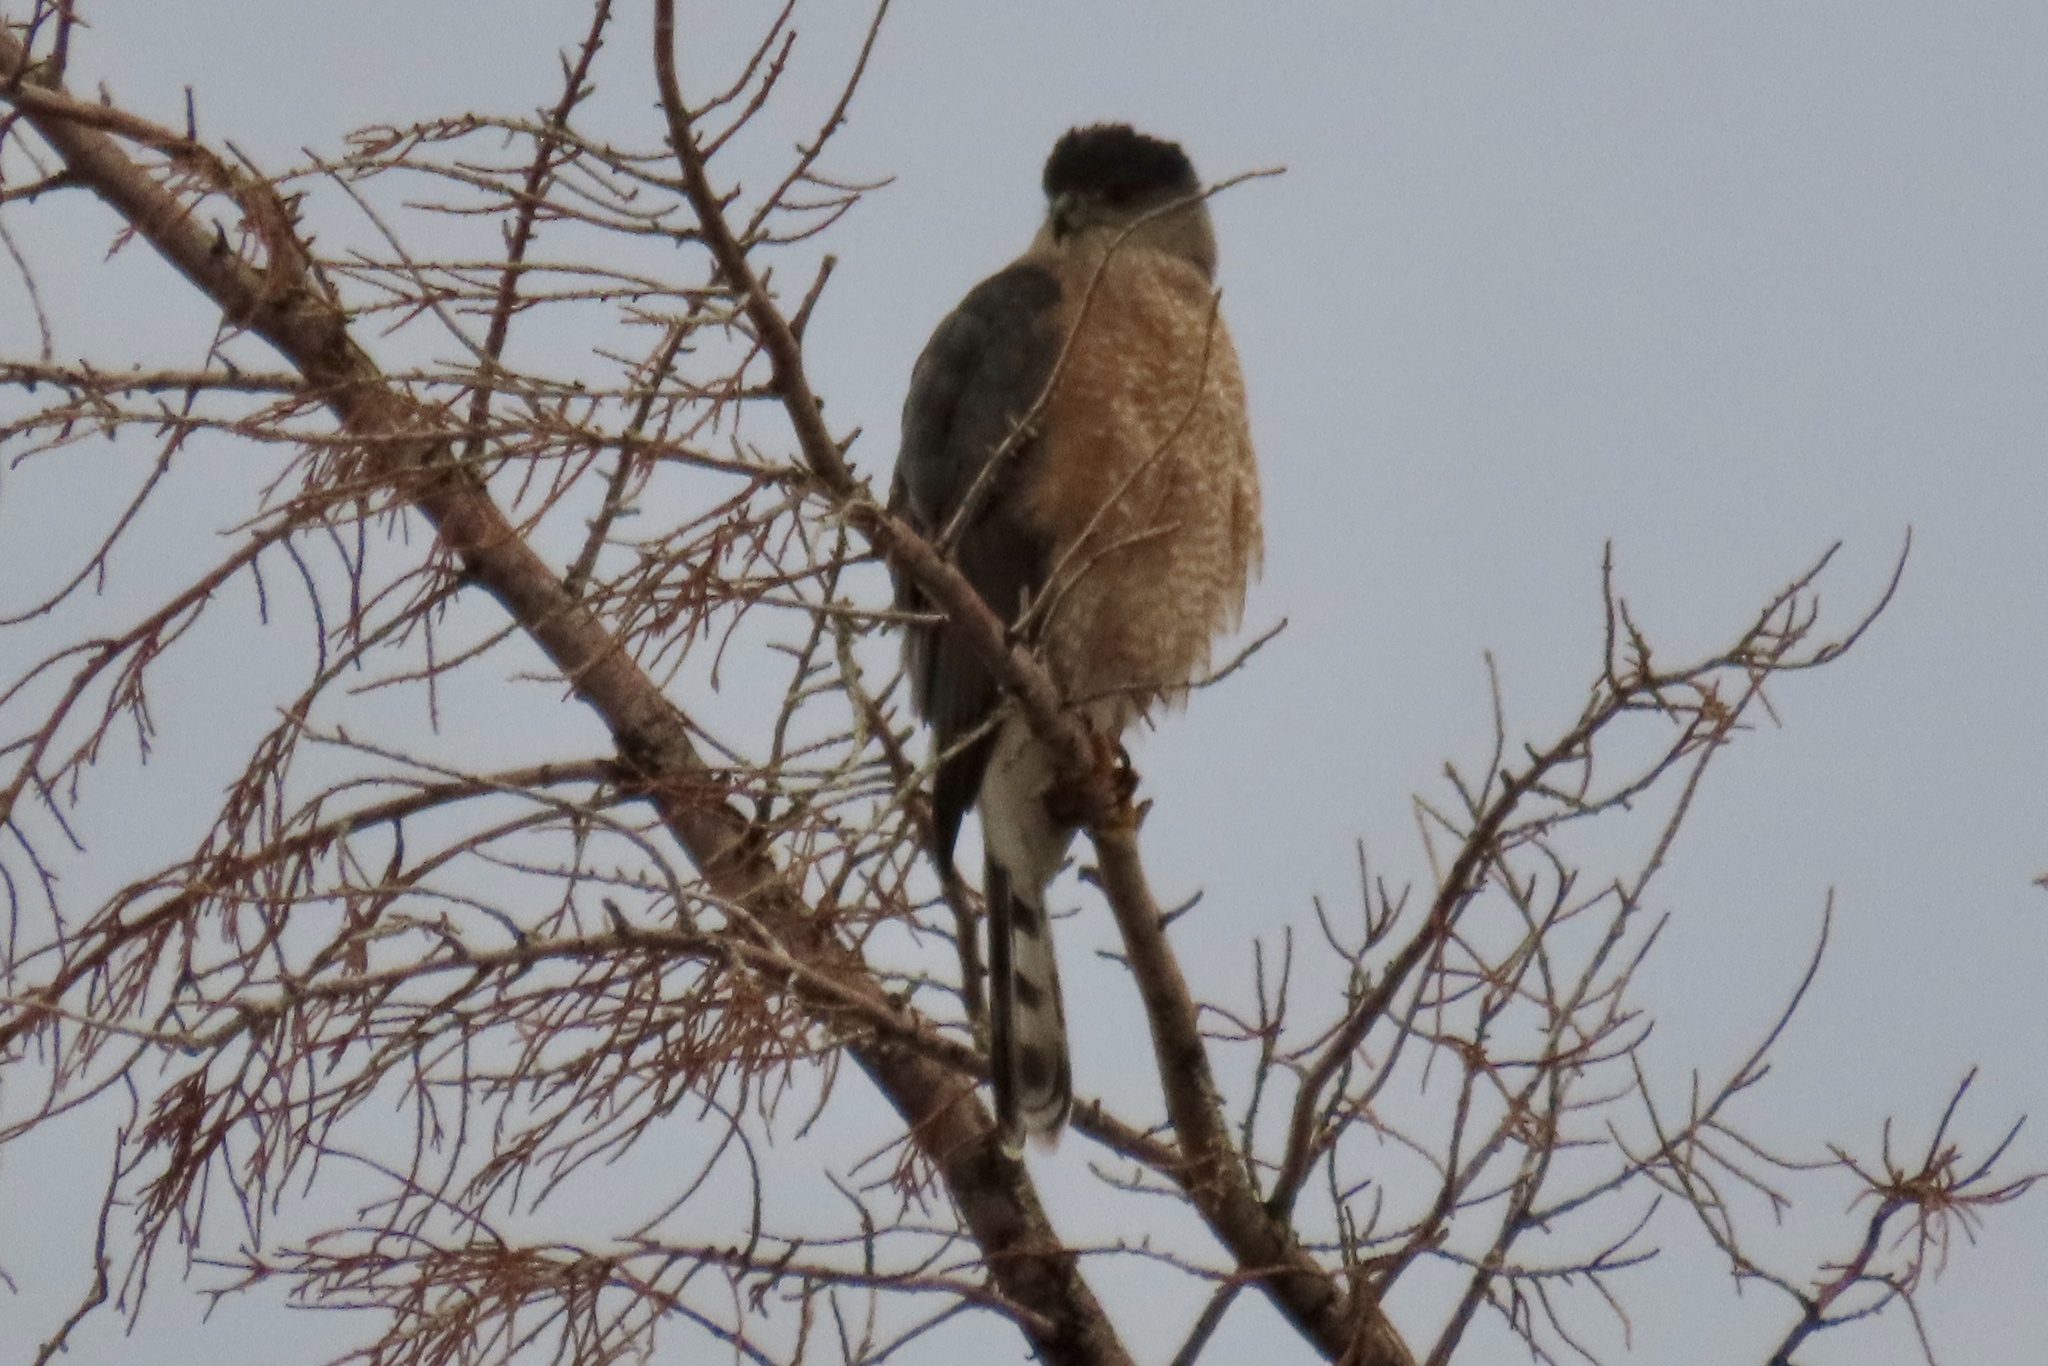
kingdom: Animalia
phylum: Chordata
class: Aves
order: Accipitriformes
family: Accipitridae
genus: Accipiter
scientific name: Accipiter cooperii
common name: Cooper's hawk
